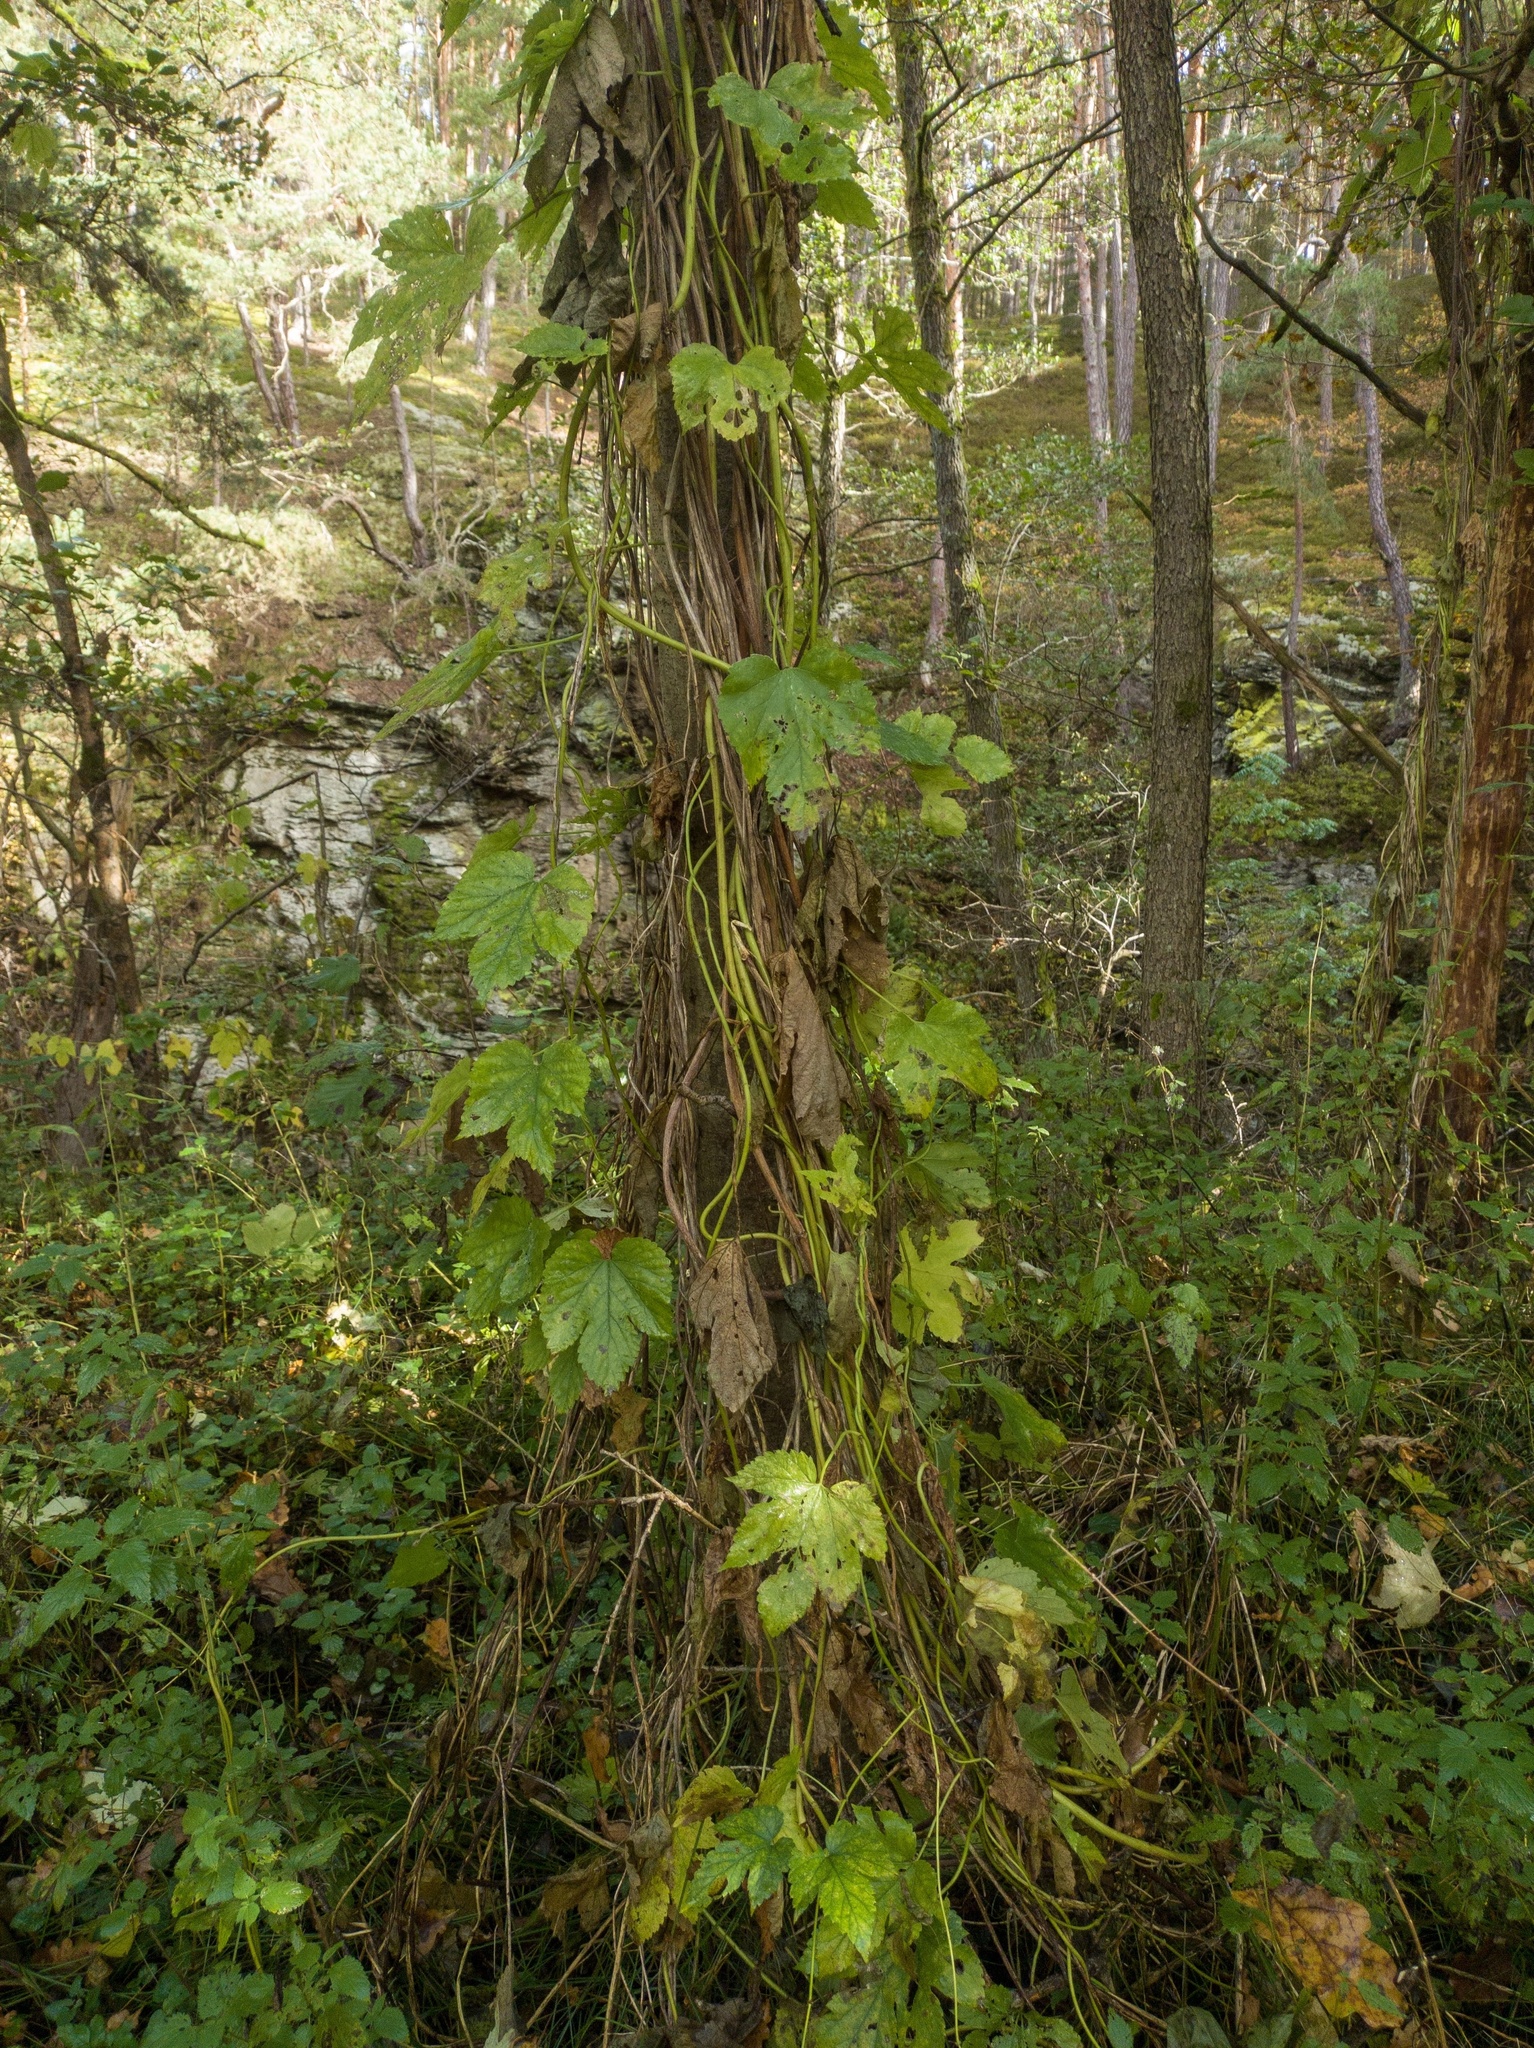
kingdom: Plantae
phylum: Tracheophyta
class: Magnoliopsida
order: Rosales
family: Cannabaceae
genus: Humulus
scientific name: Humulus lupulus
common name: Hop
